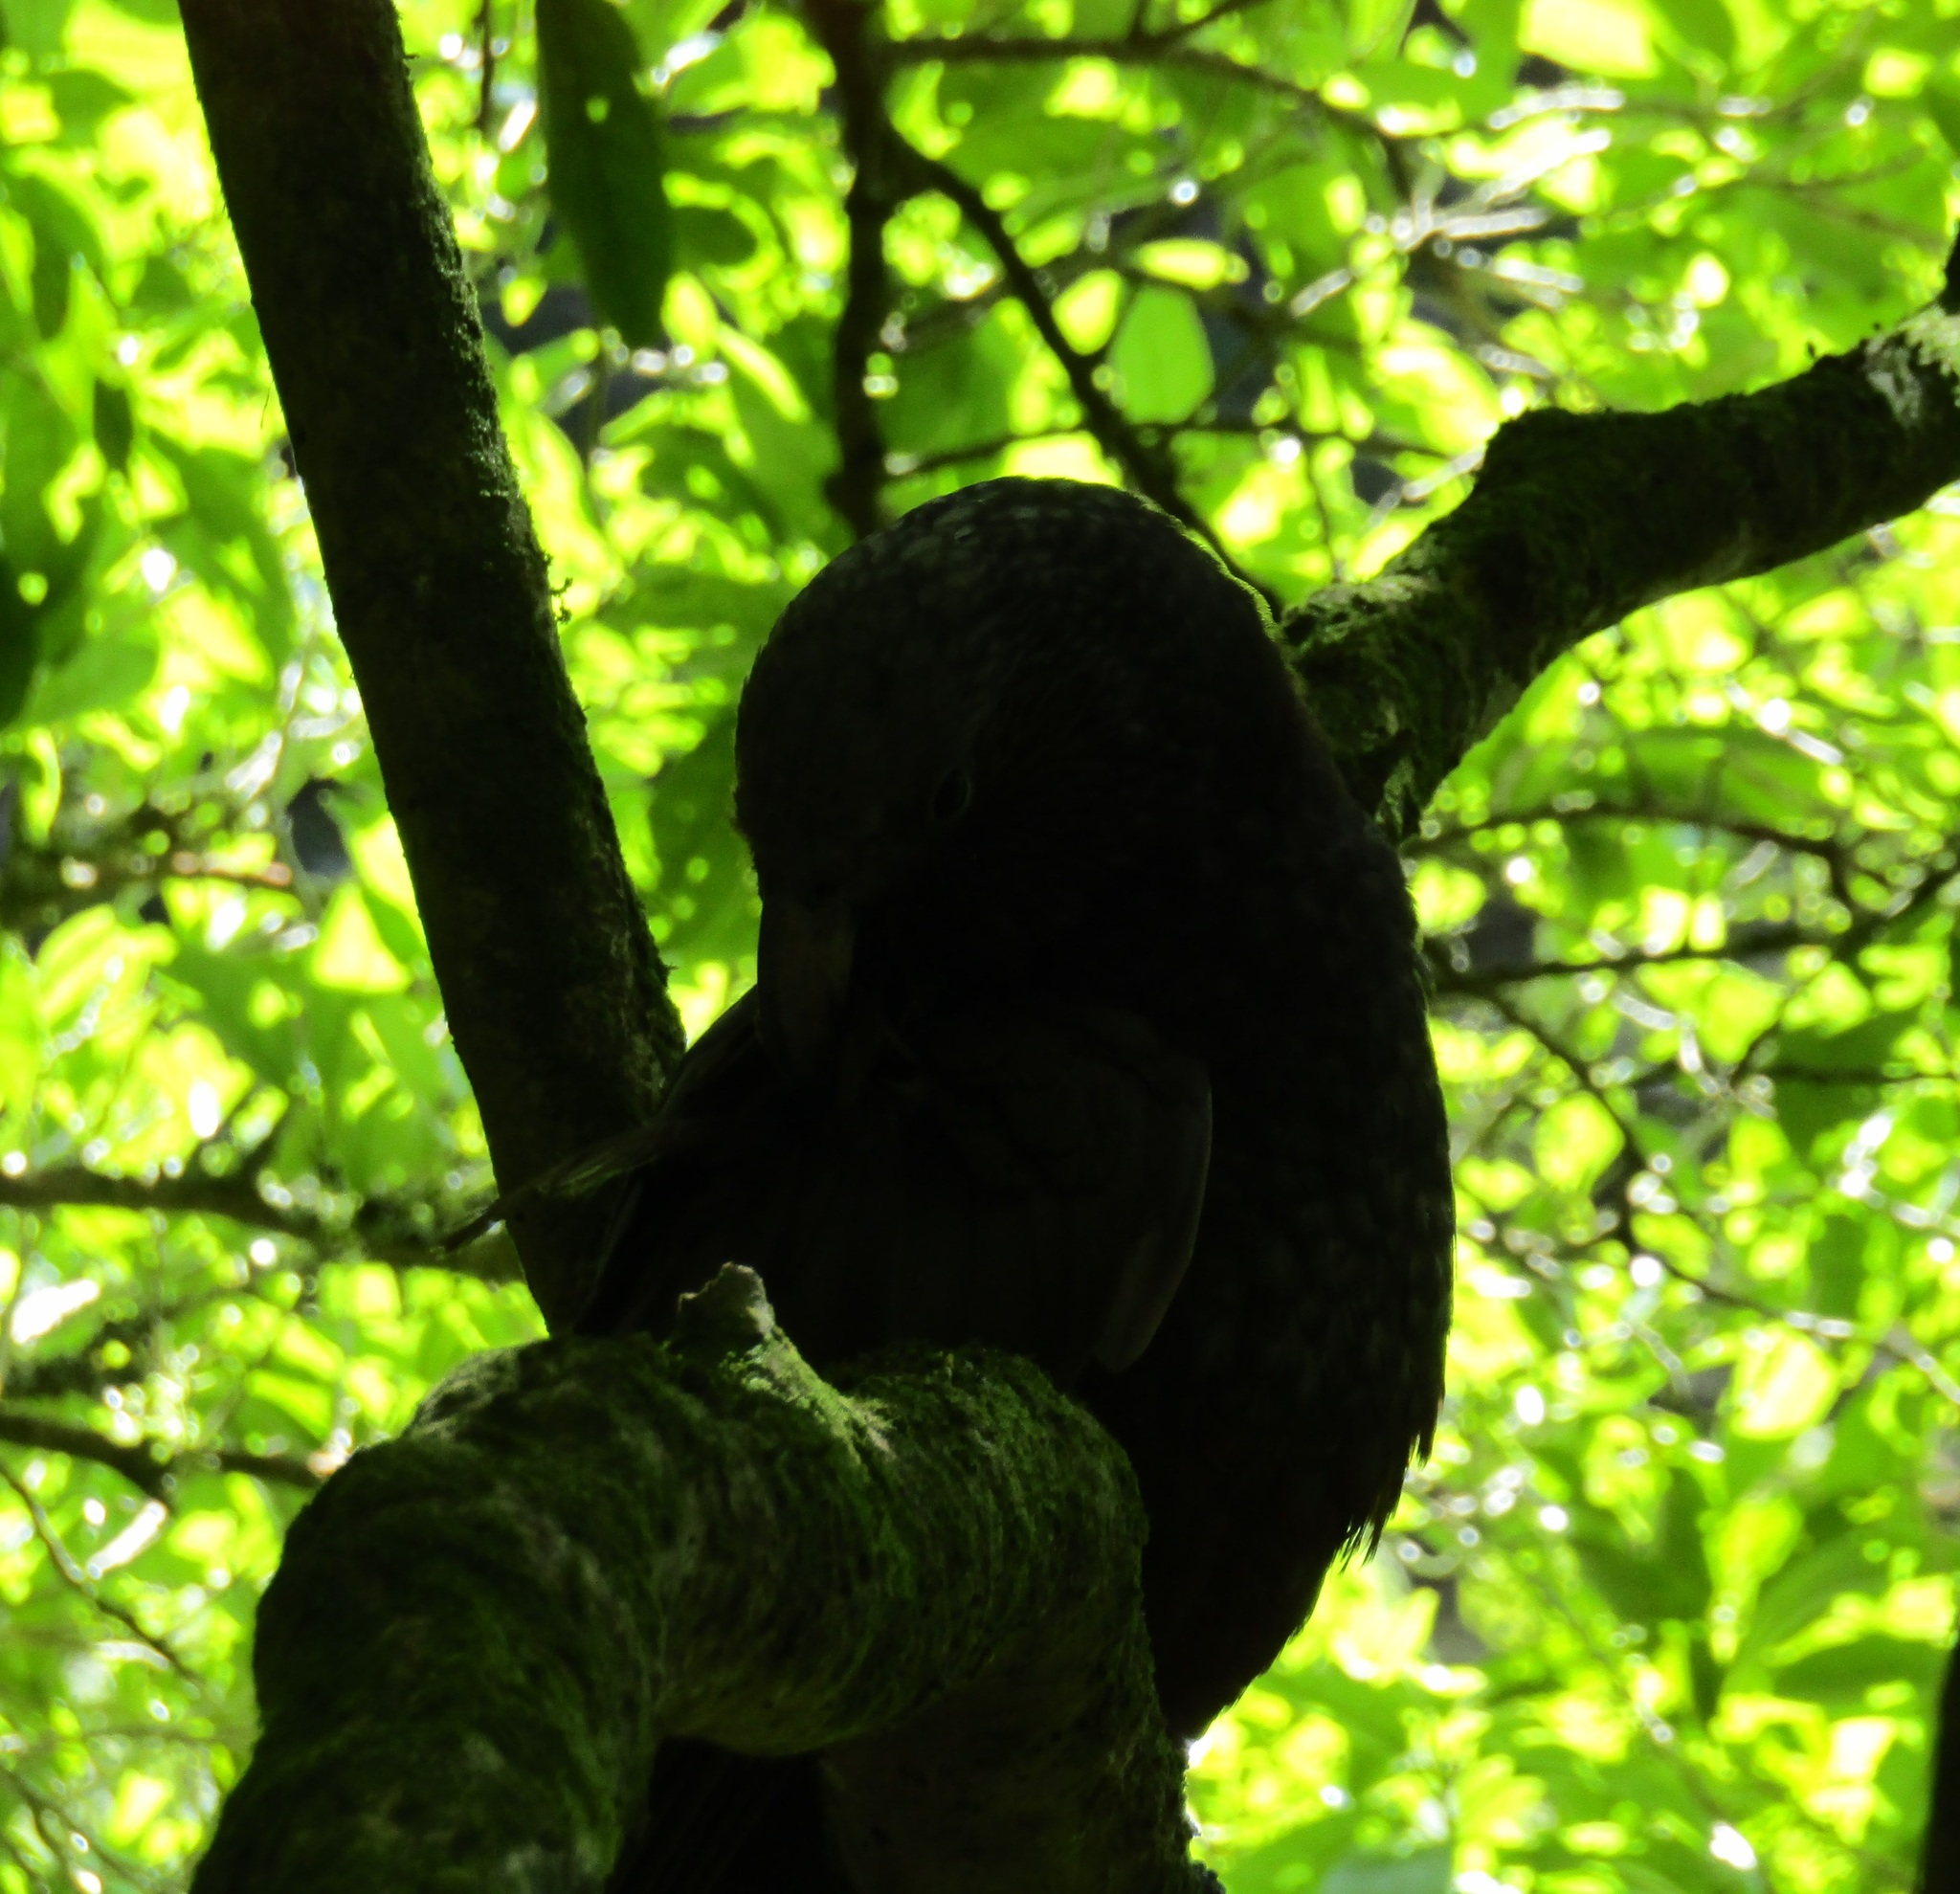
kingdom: Animalia
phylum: Chordata
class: Aves
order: Psittaciformes
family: Psittacidae
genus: Nestor
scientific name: Nestor meridionalis
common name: New zealand kaka
